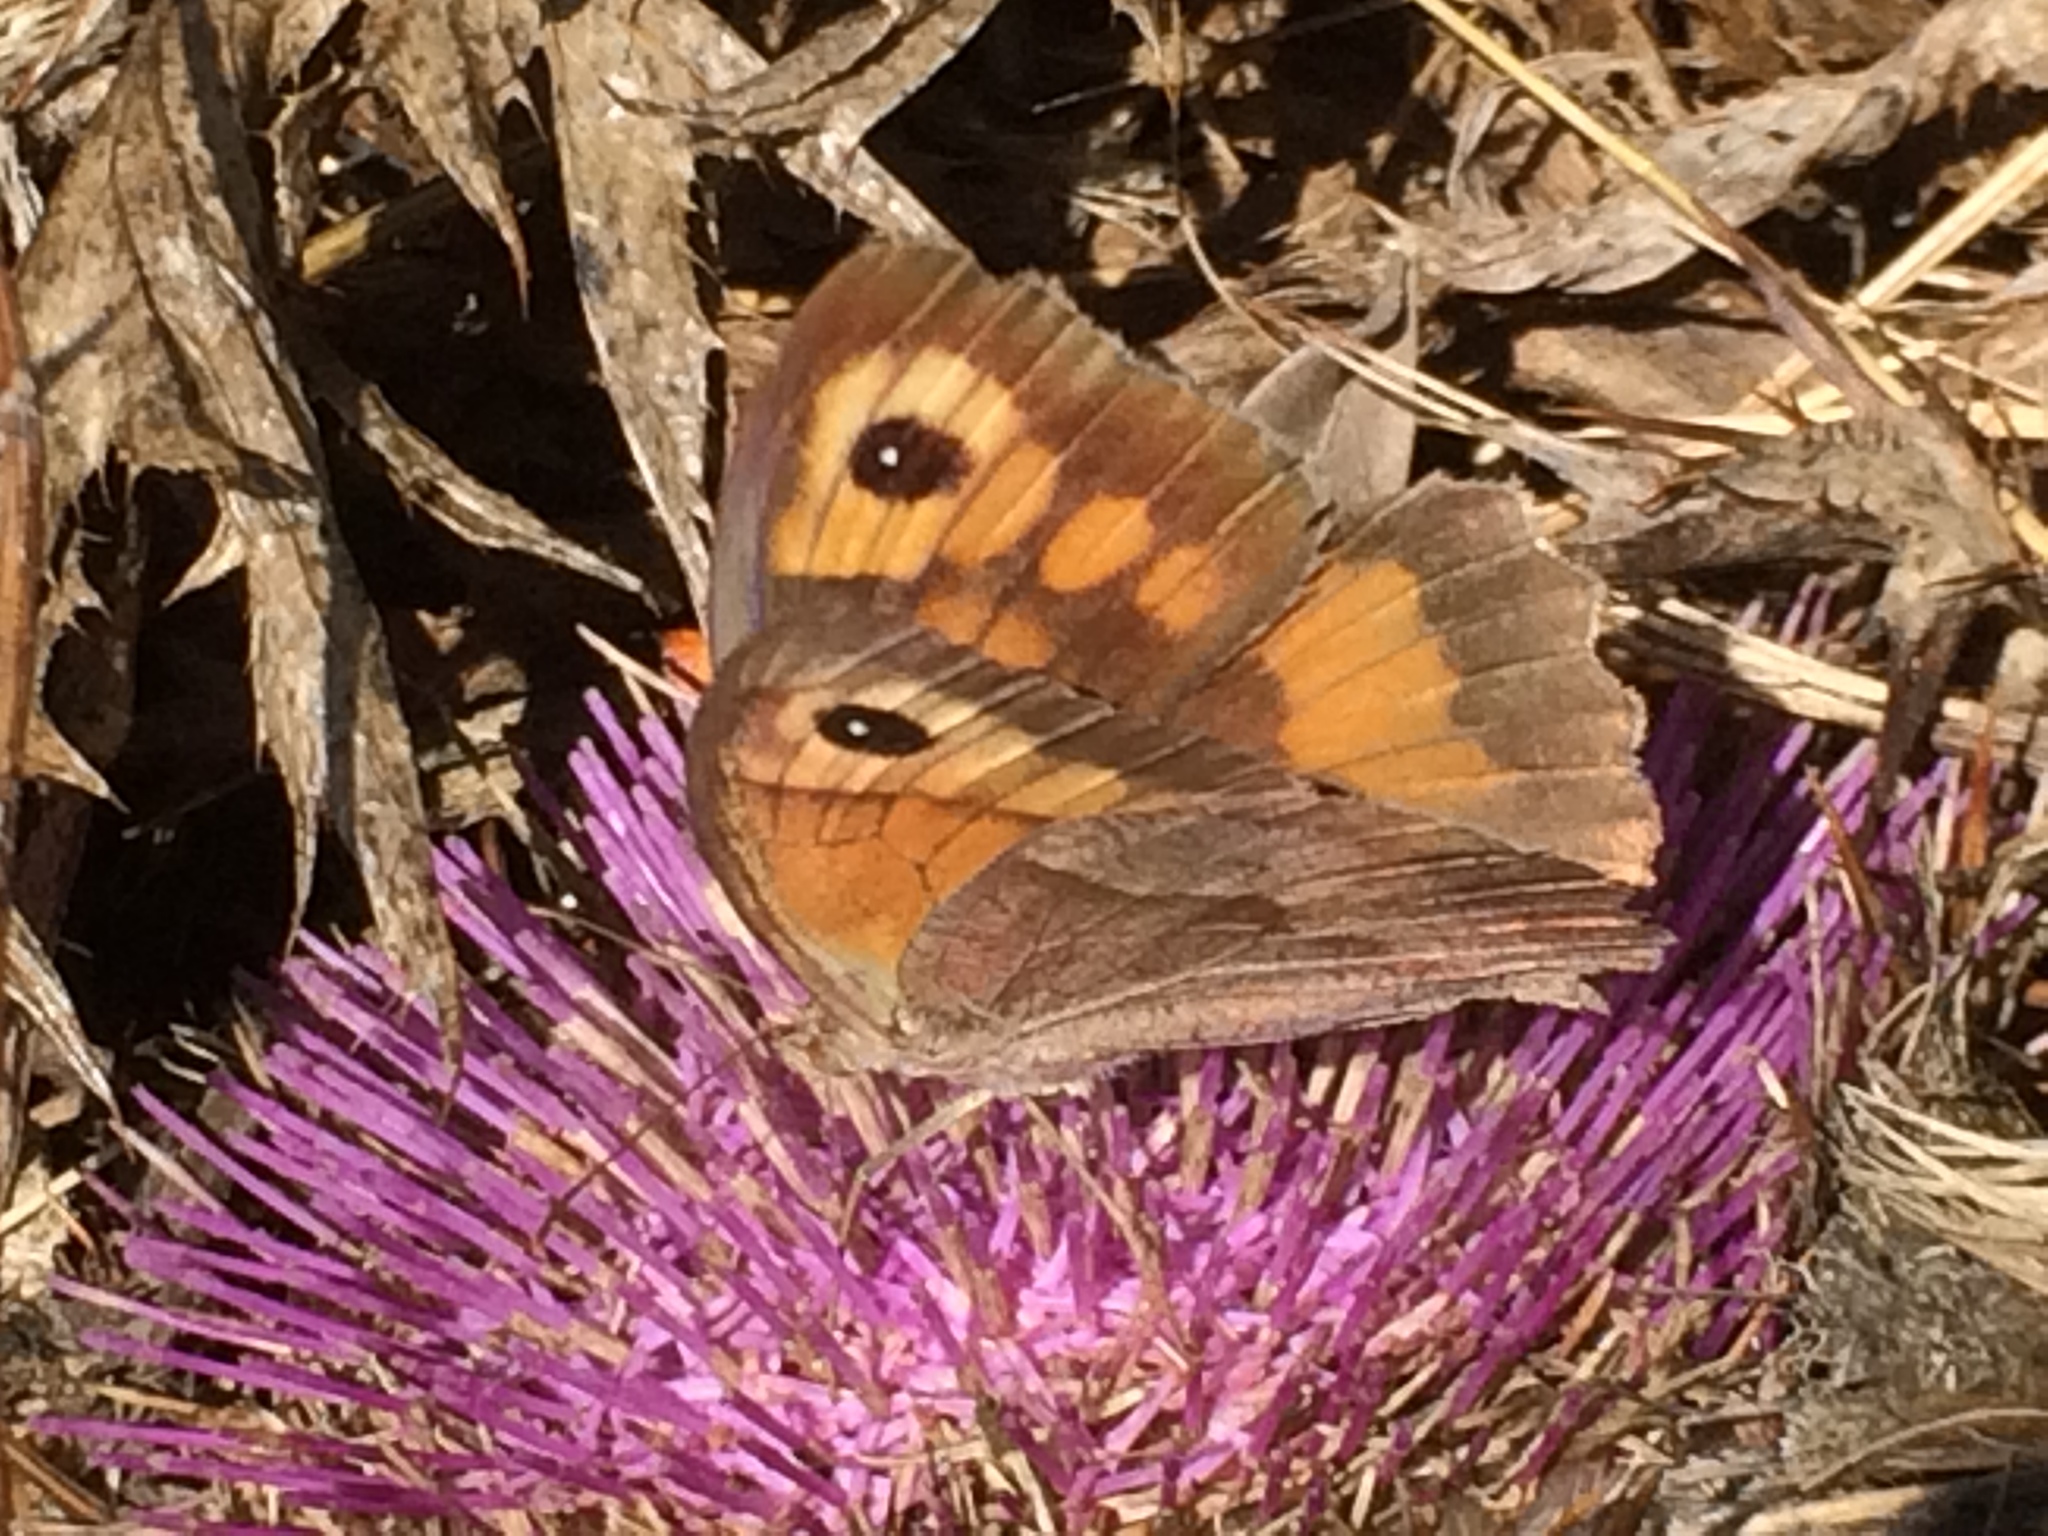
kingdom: Animalia
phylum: Arthropoda
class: Insecta
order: Lepidoptera
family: Nymphalidae
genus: Maniola
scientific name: Maniola jurtina
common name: Meadow brown
